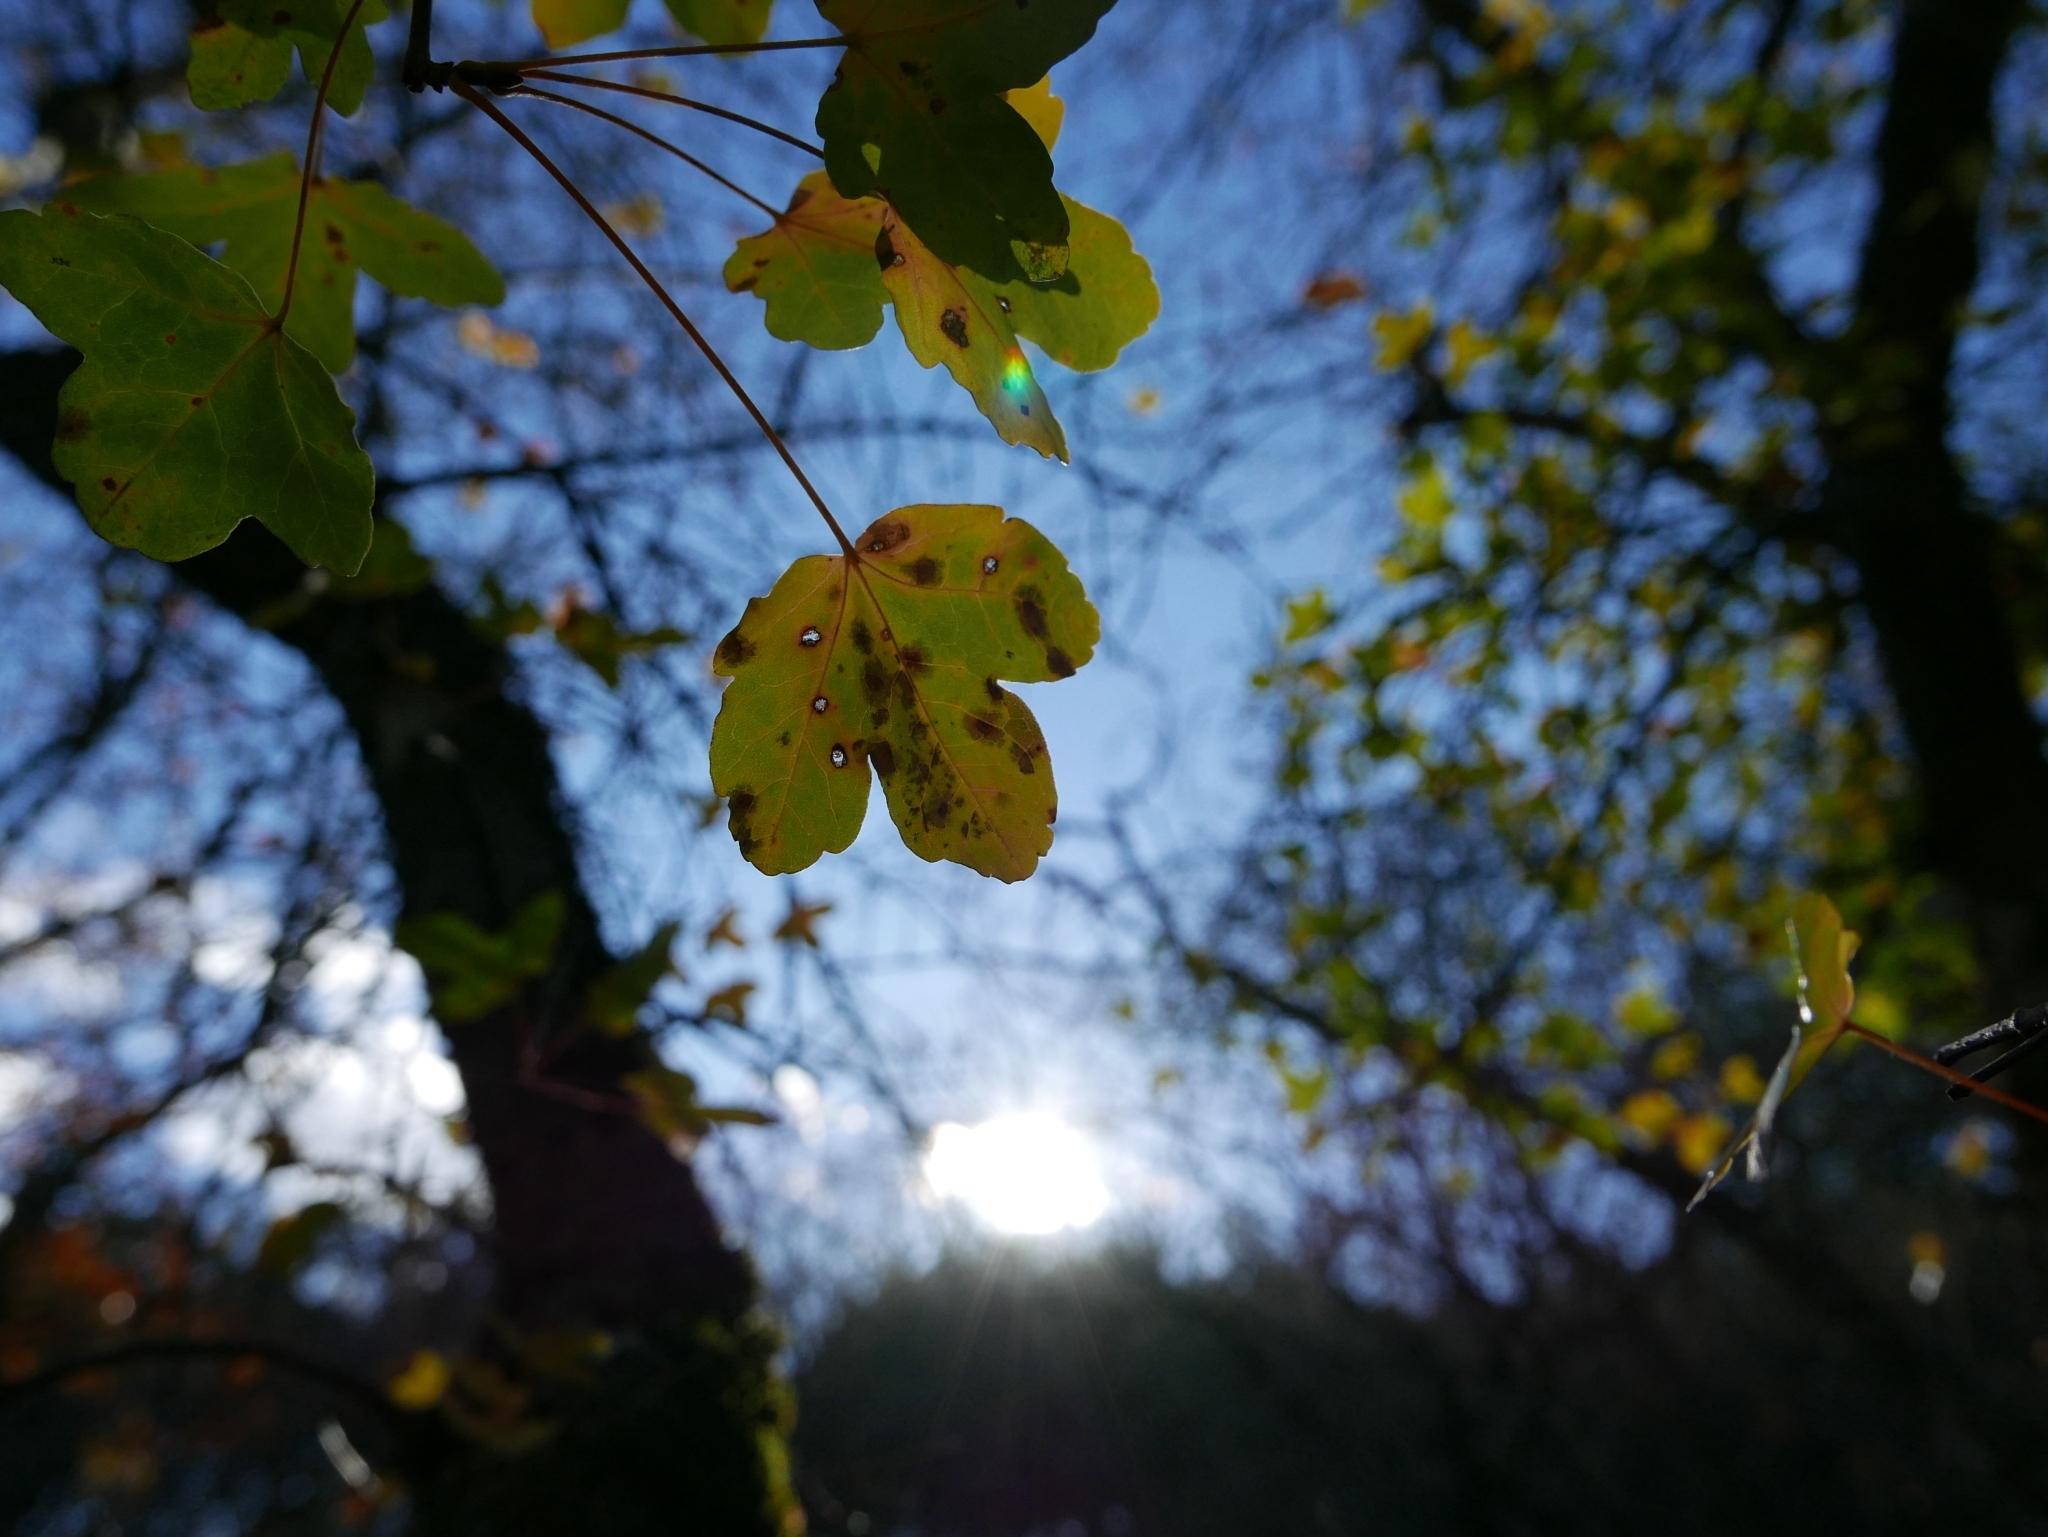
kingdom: Plantae
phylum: Tracheophyta
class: Magnoliopsida
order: Sapindales
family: Sapindaceae
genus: Acer
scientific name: Acer monspessulanum
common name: Montpellier maple
